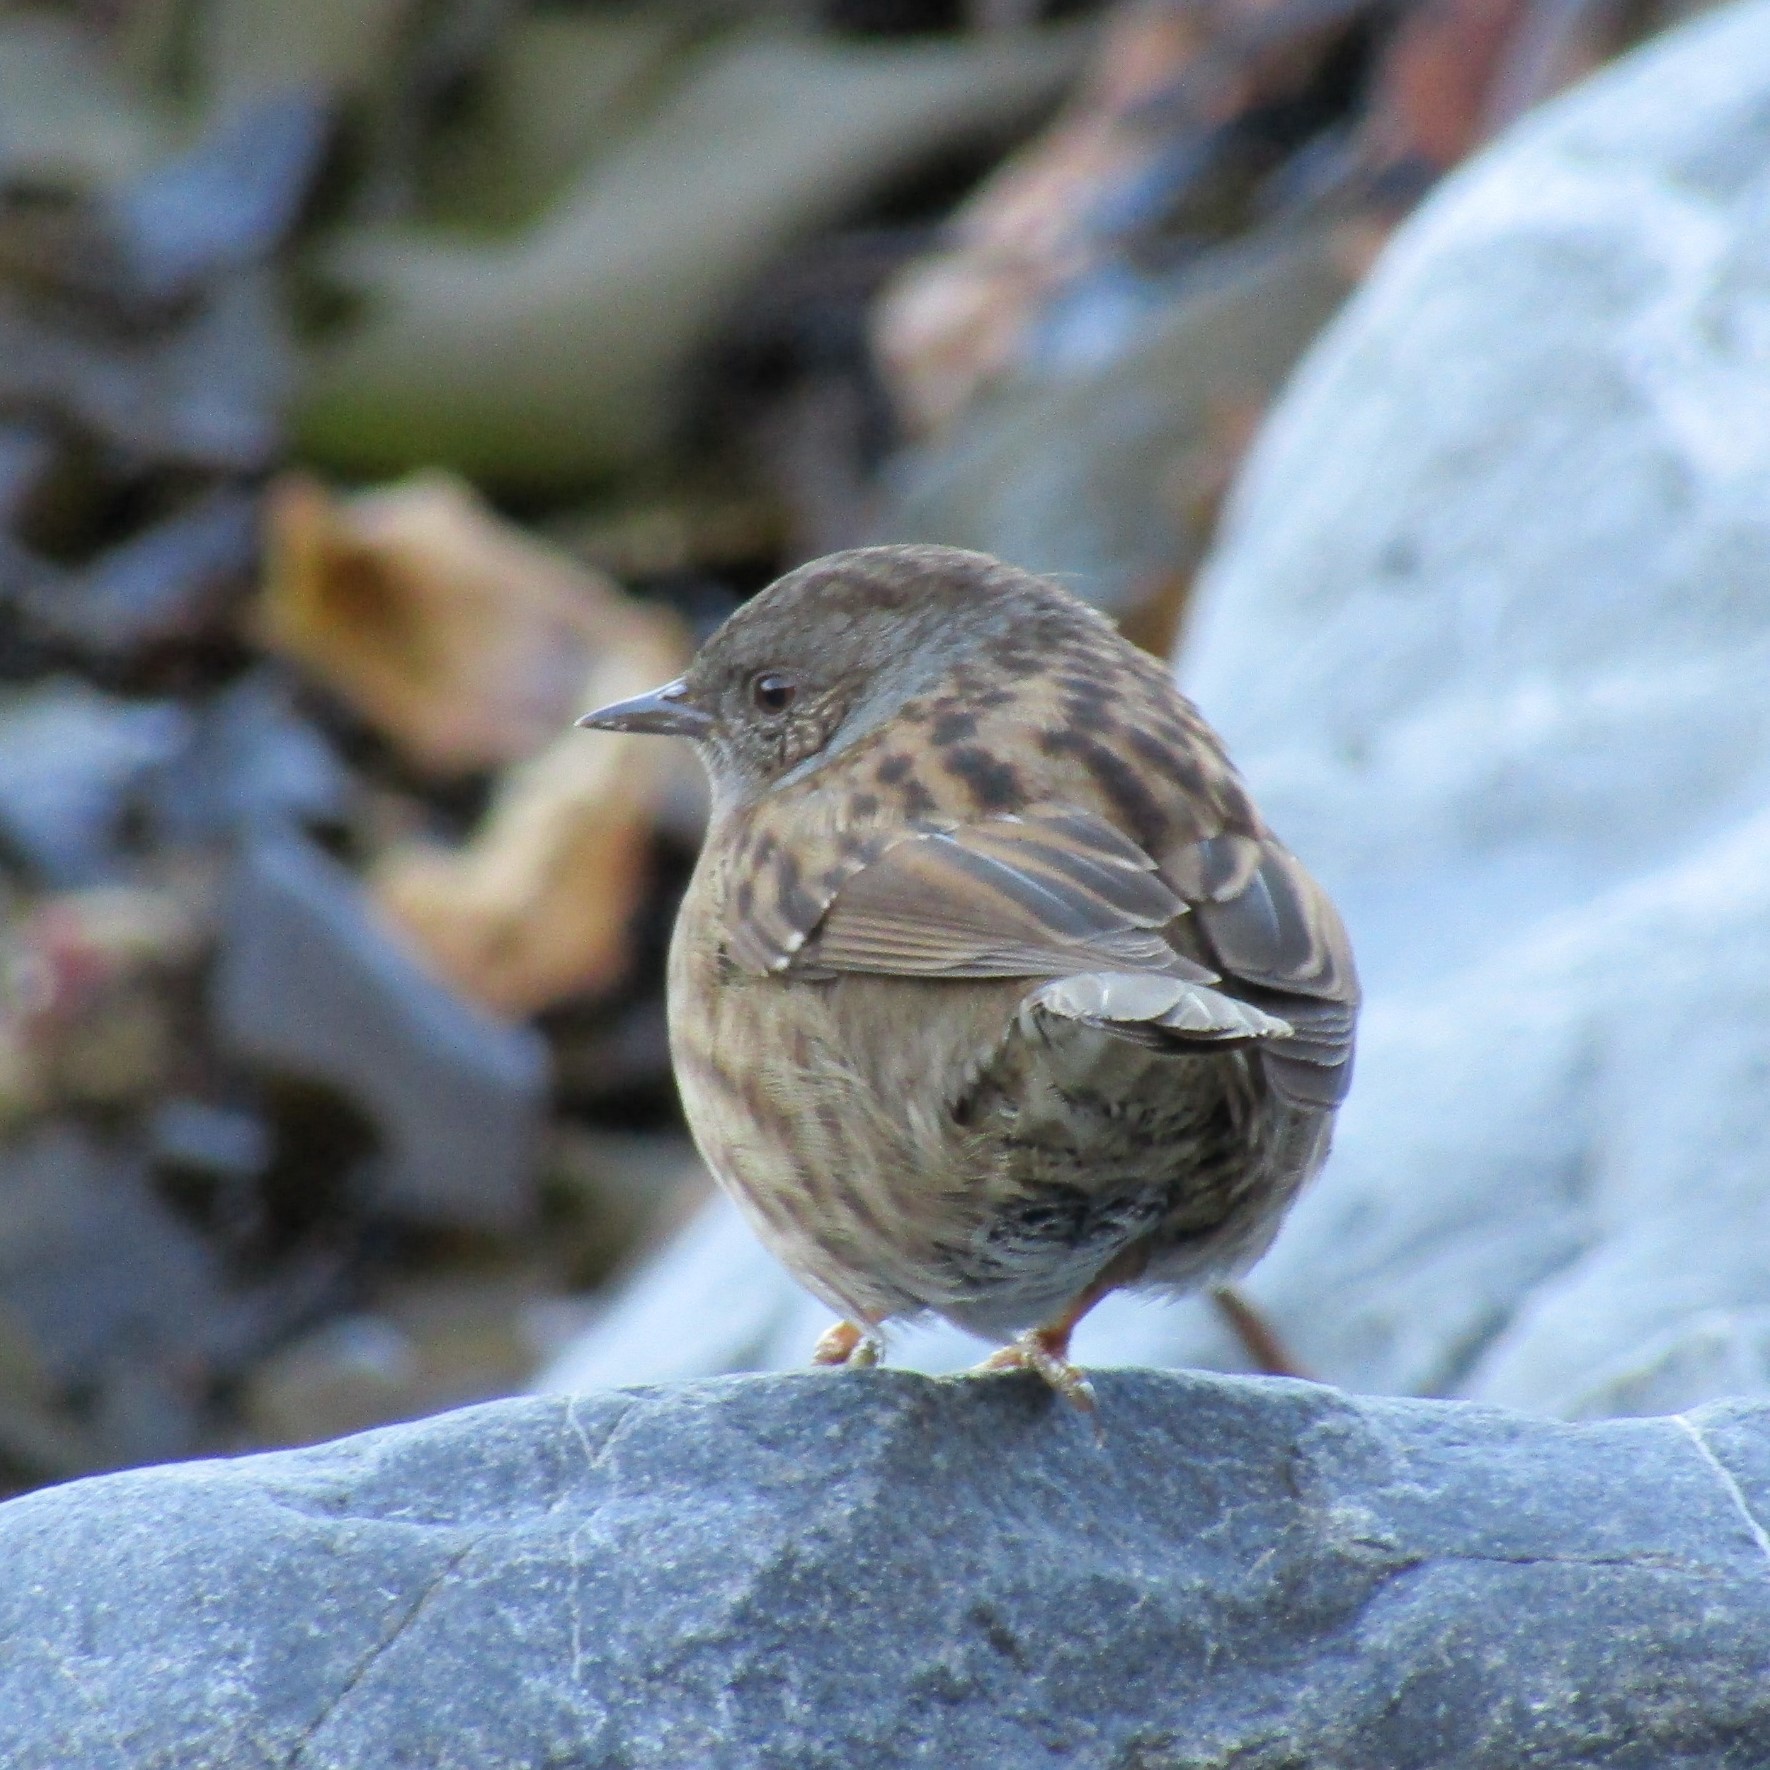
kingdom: Animalia
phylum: Chordata
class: Aves
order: Passeriformes
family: Prunellidae
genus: Prunella
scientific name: Prunella modularis
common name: Dunnock
